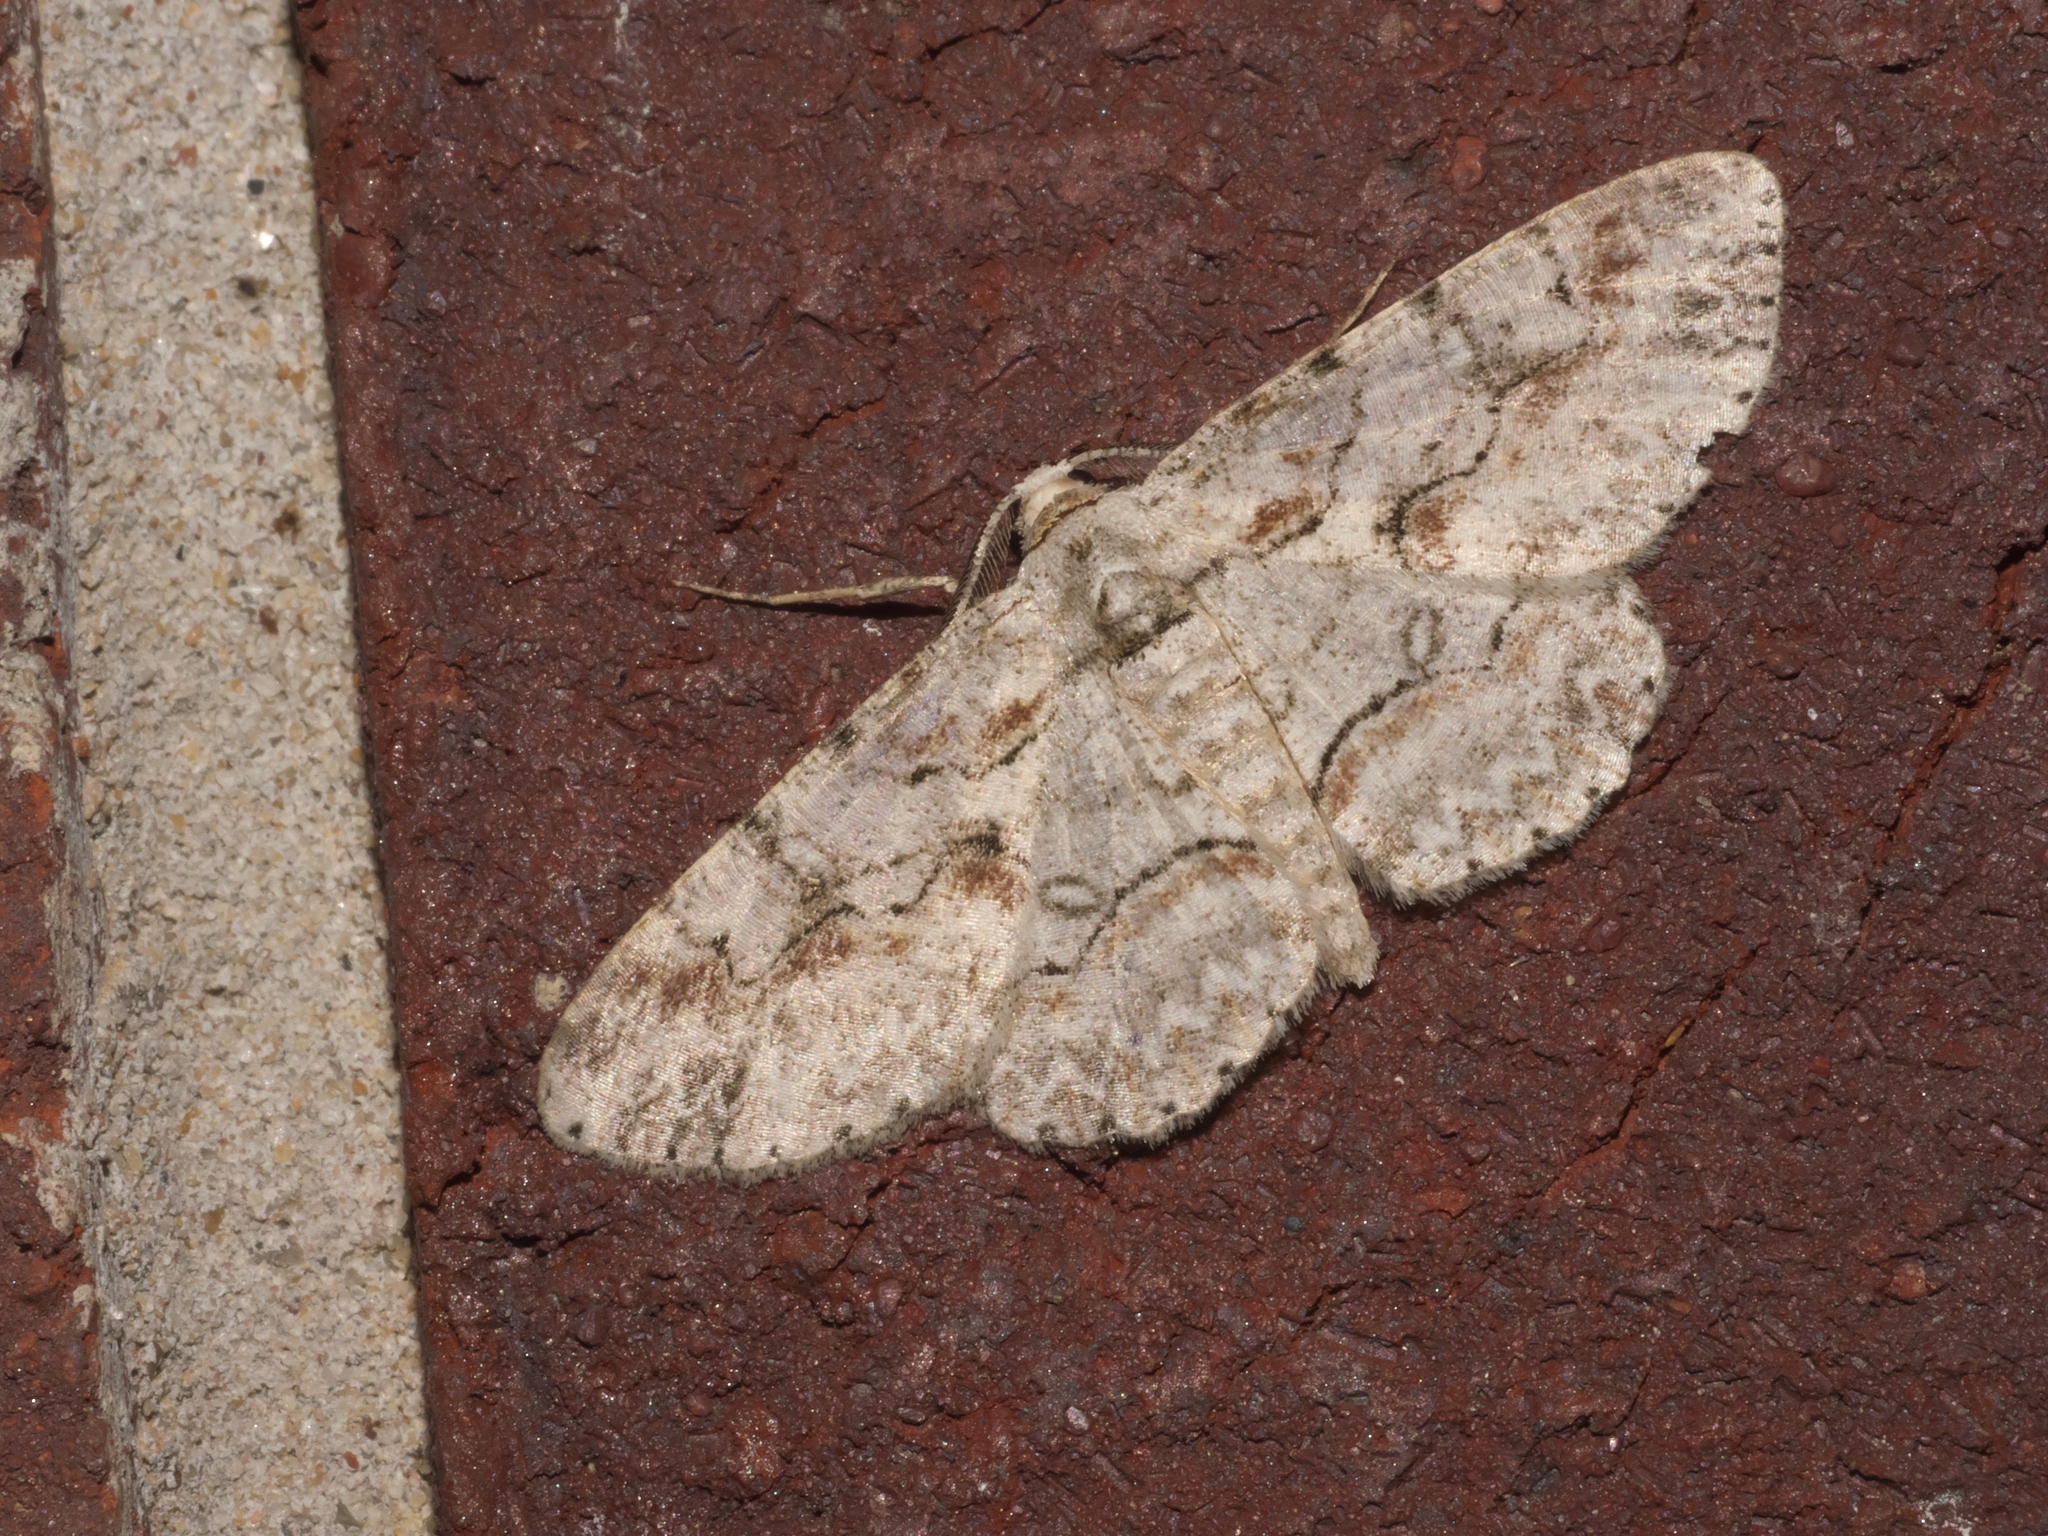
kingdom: Animalia
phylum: Arthropoda
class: Insecta
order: Lepidoptera
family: Geometridae
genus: Iridopsis
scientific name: Iridopsis defectaria
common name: Brown-shaded gray
